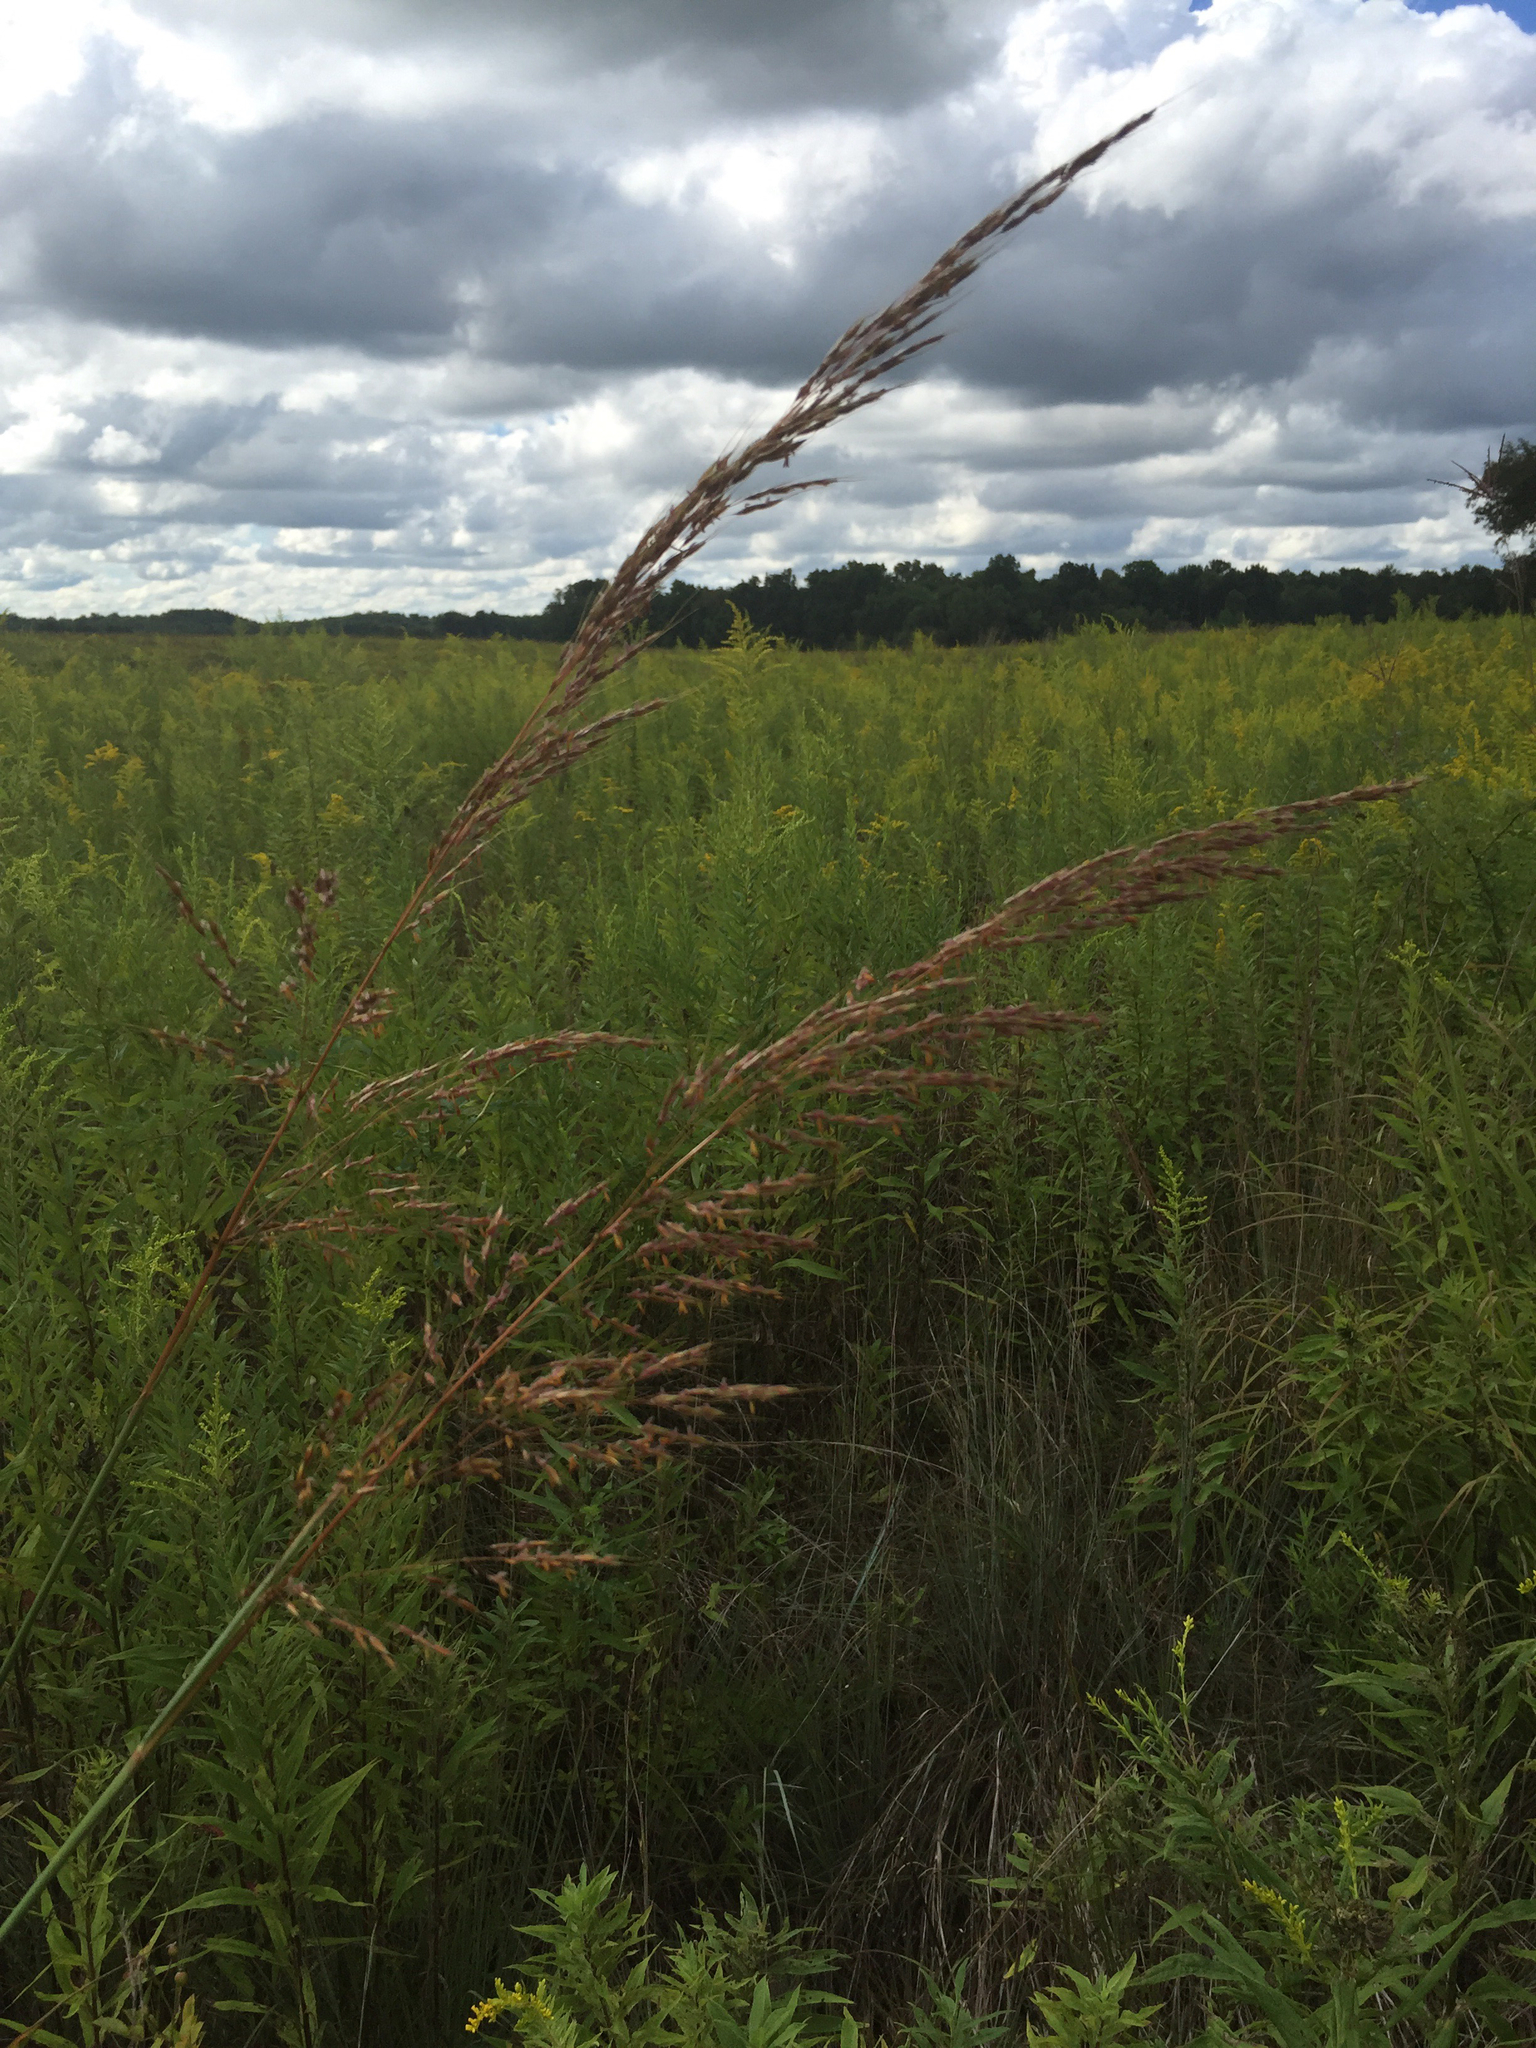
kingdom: Plantae
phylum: Tracheophyta
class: Liliopsida
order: Poales
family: Poaceae
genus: Sorghastrum
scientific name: Sorghastrum nutans
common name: Indian grass
